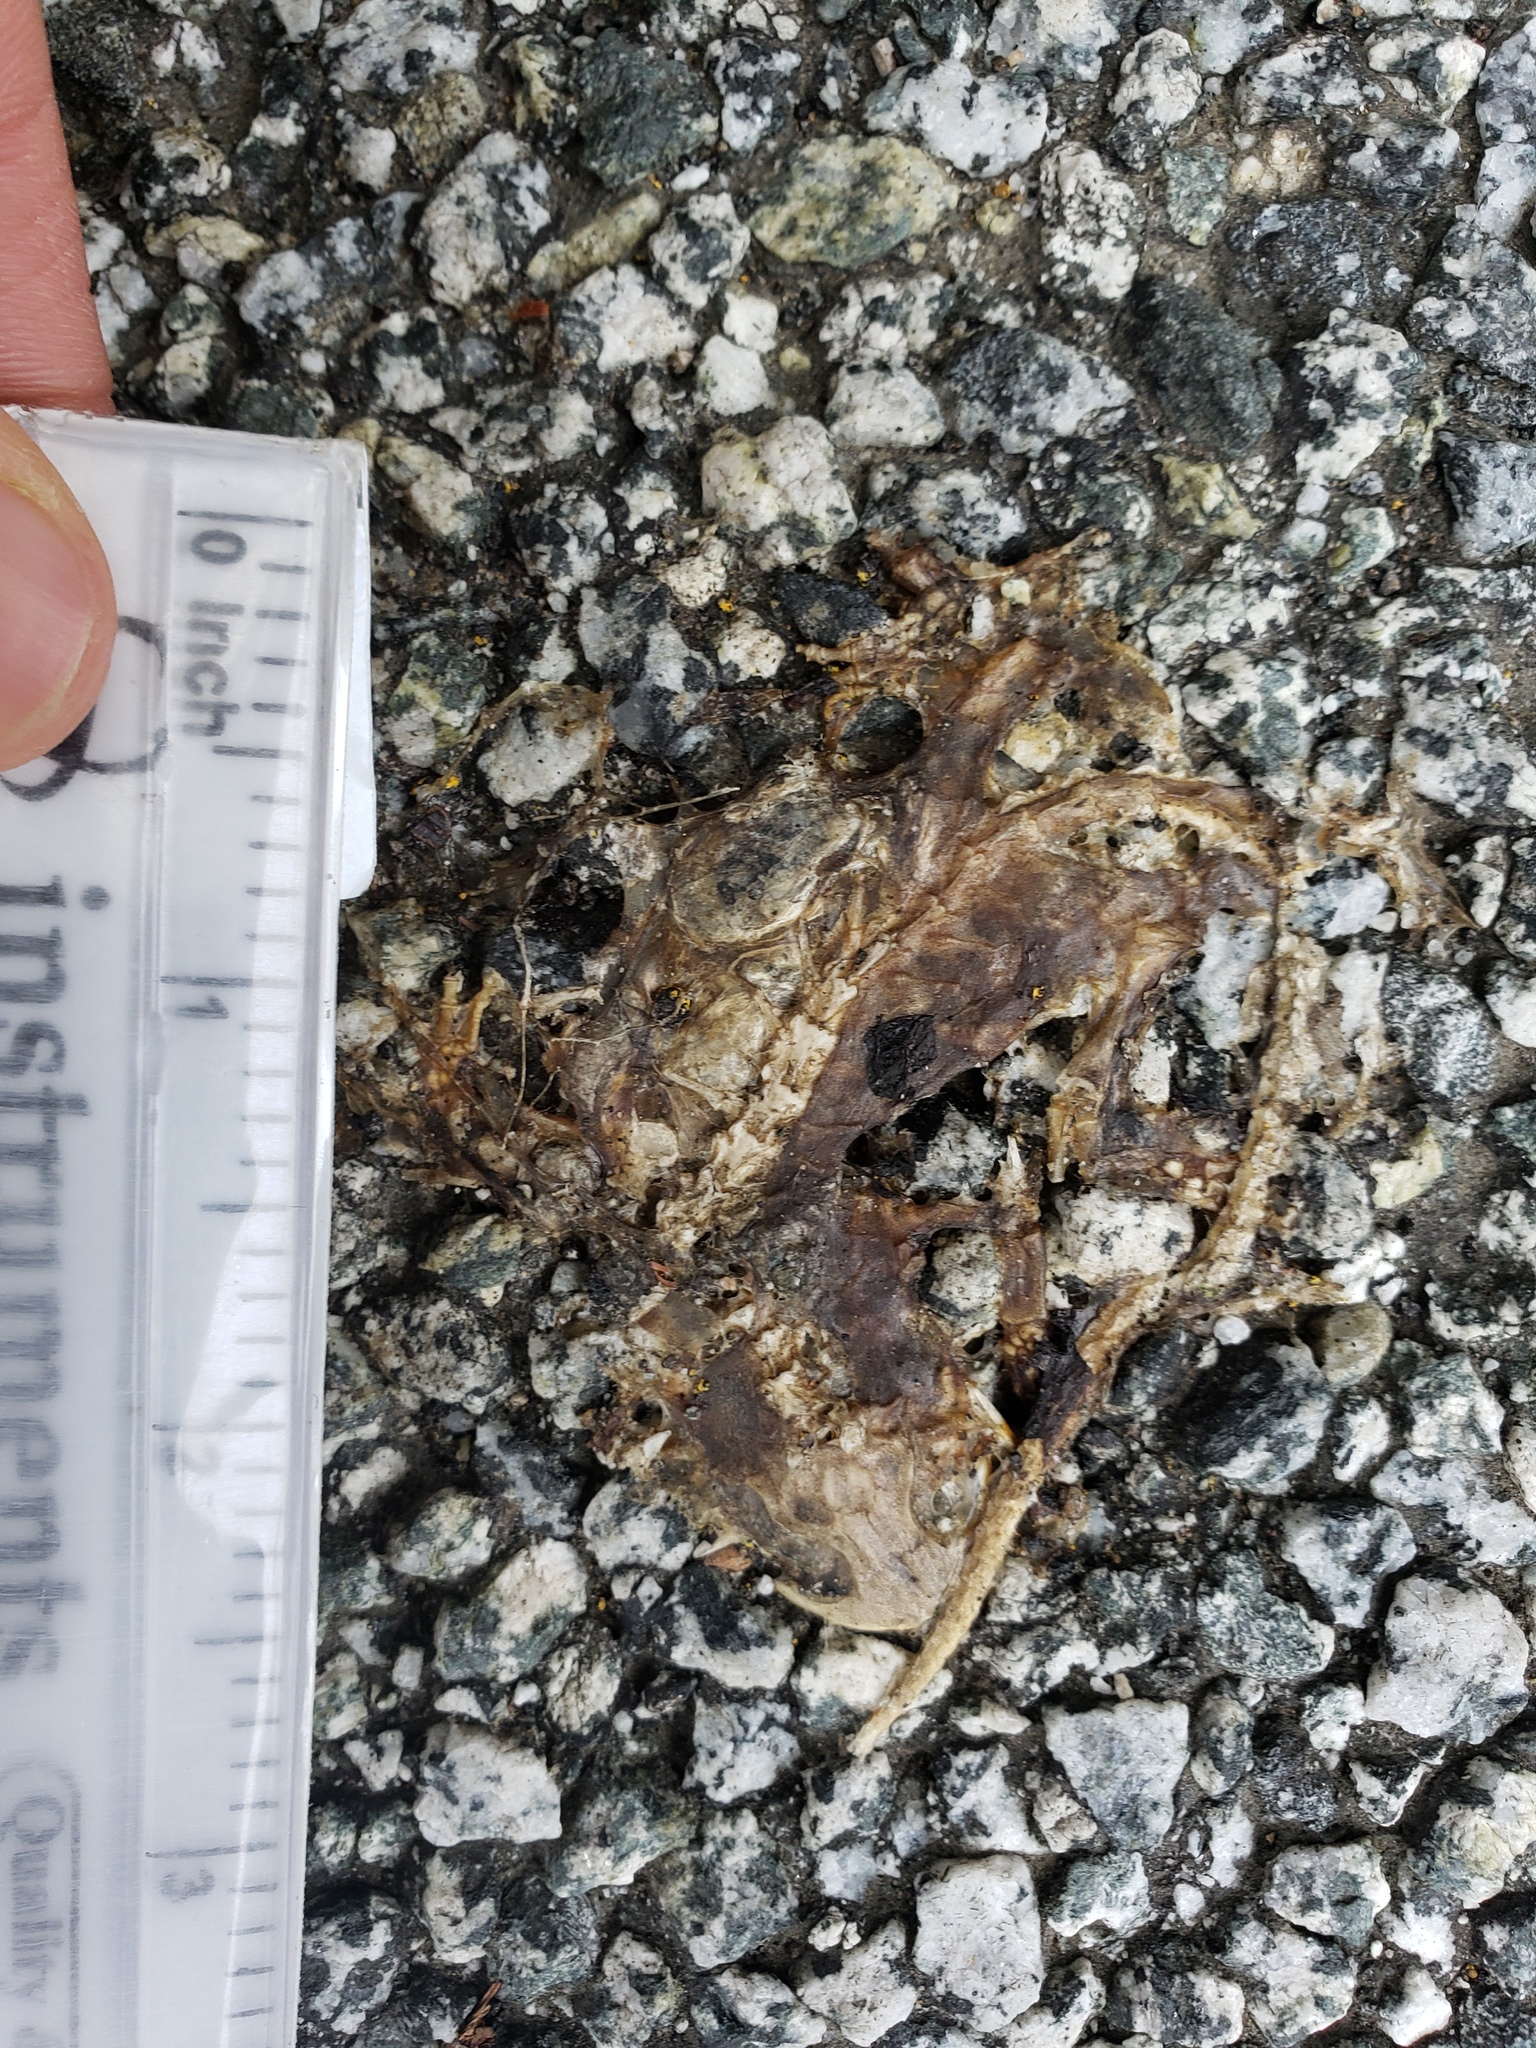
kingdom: Animalia
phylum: Chordata
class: Amphibia
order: Caudata
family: Salamandridae
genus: Taricha
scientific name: Taricha
